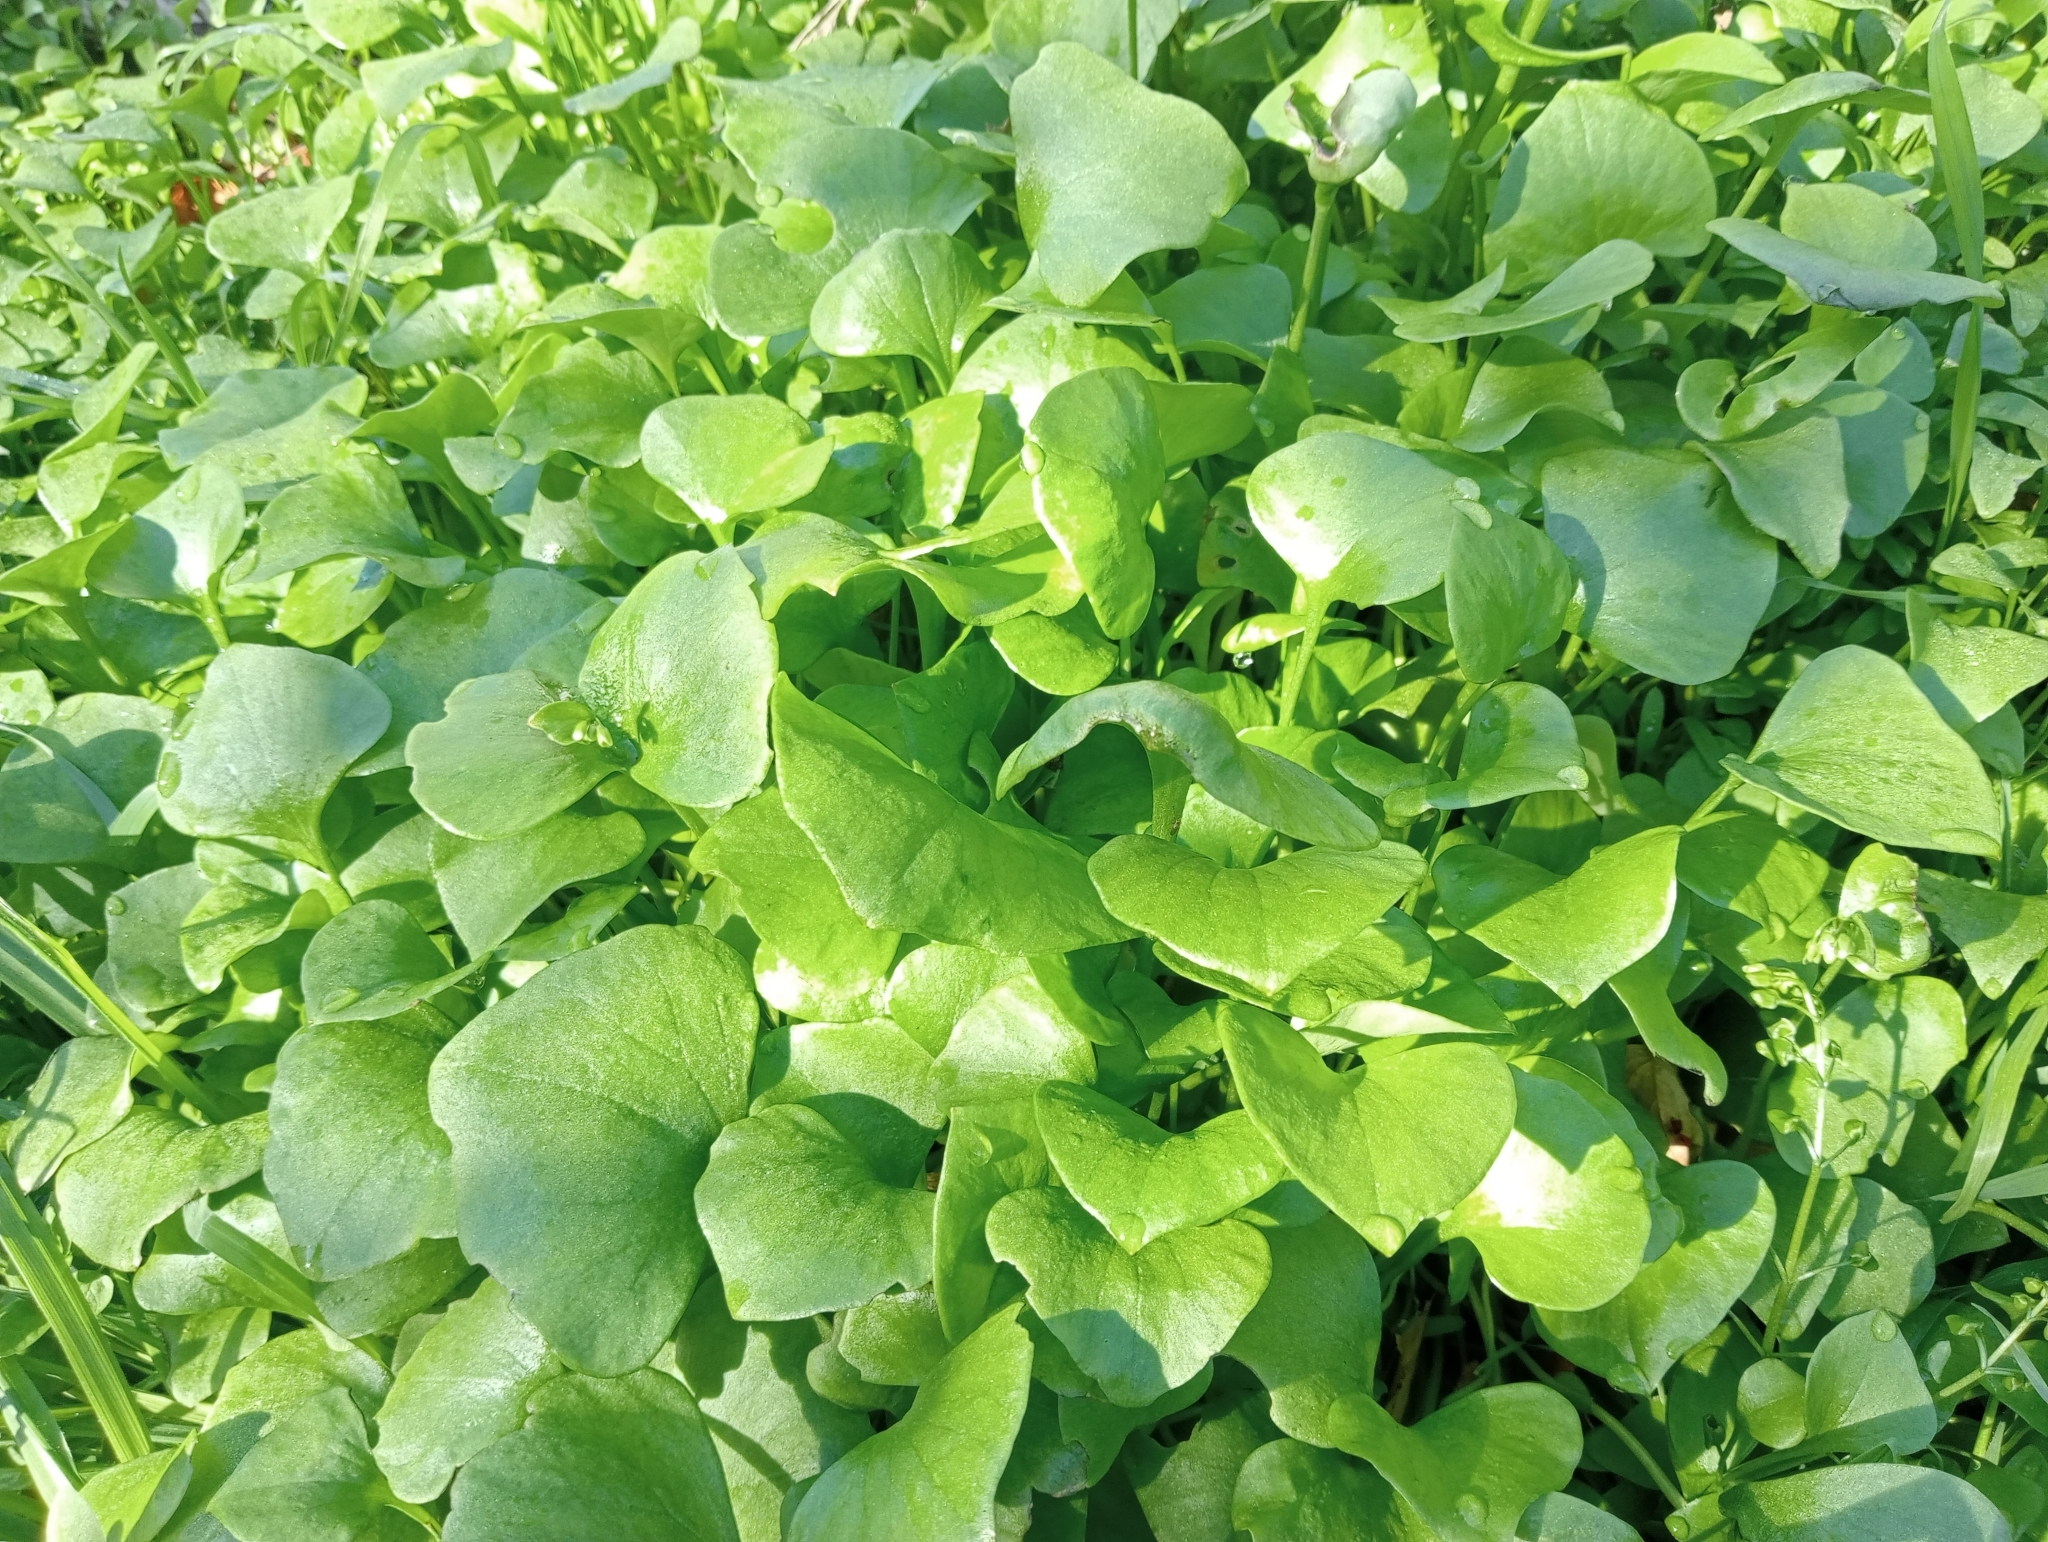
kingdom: Plantae
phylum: Tracheophyta
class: Magnoliopsida
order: Caryophyllales
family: Montiaceae
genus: Claytonia
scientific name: Claytonia perfoliata
